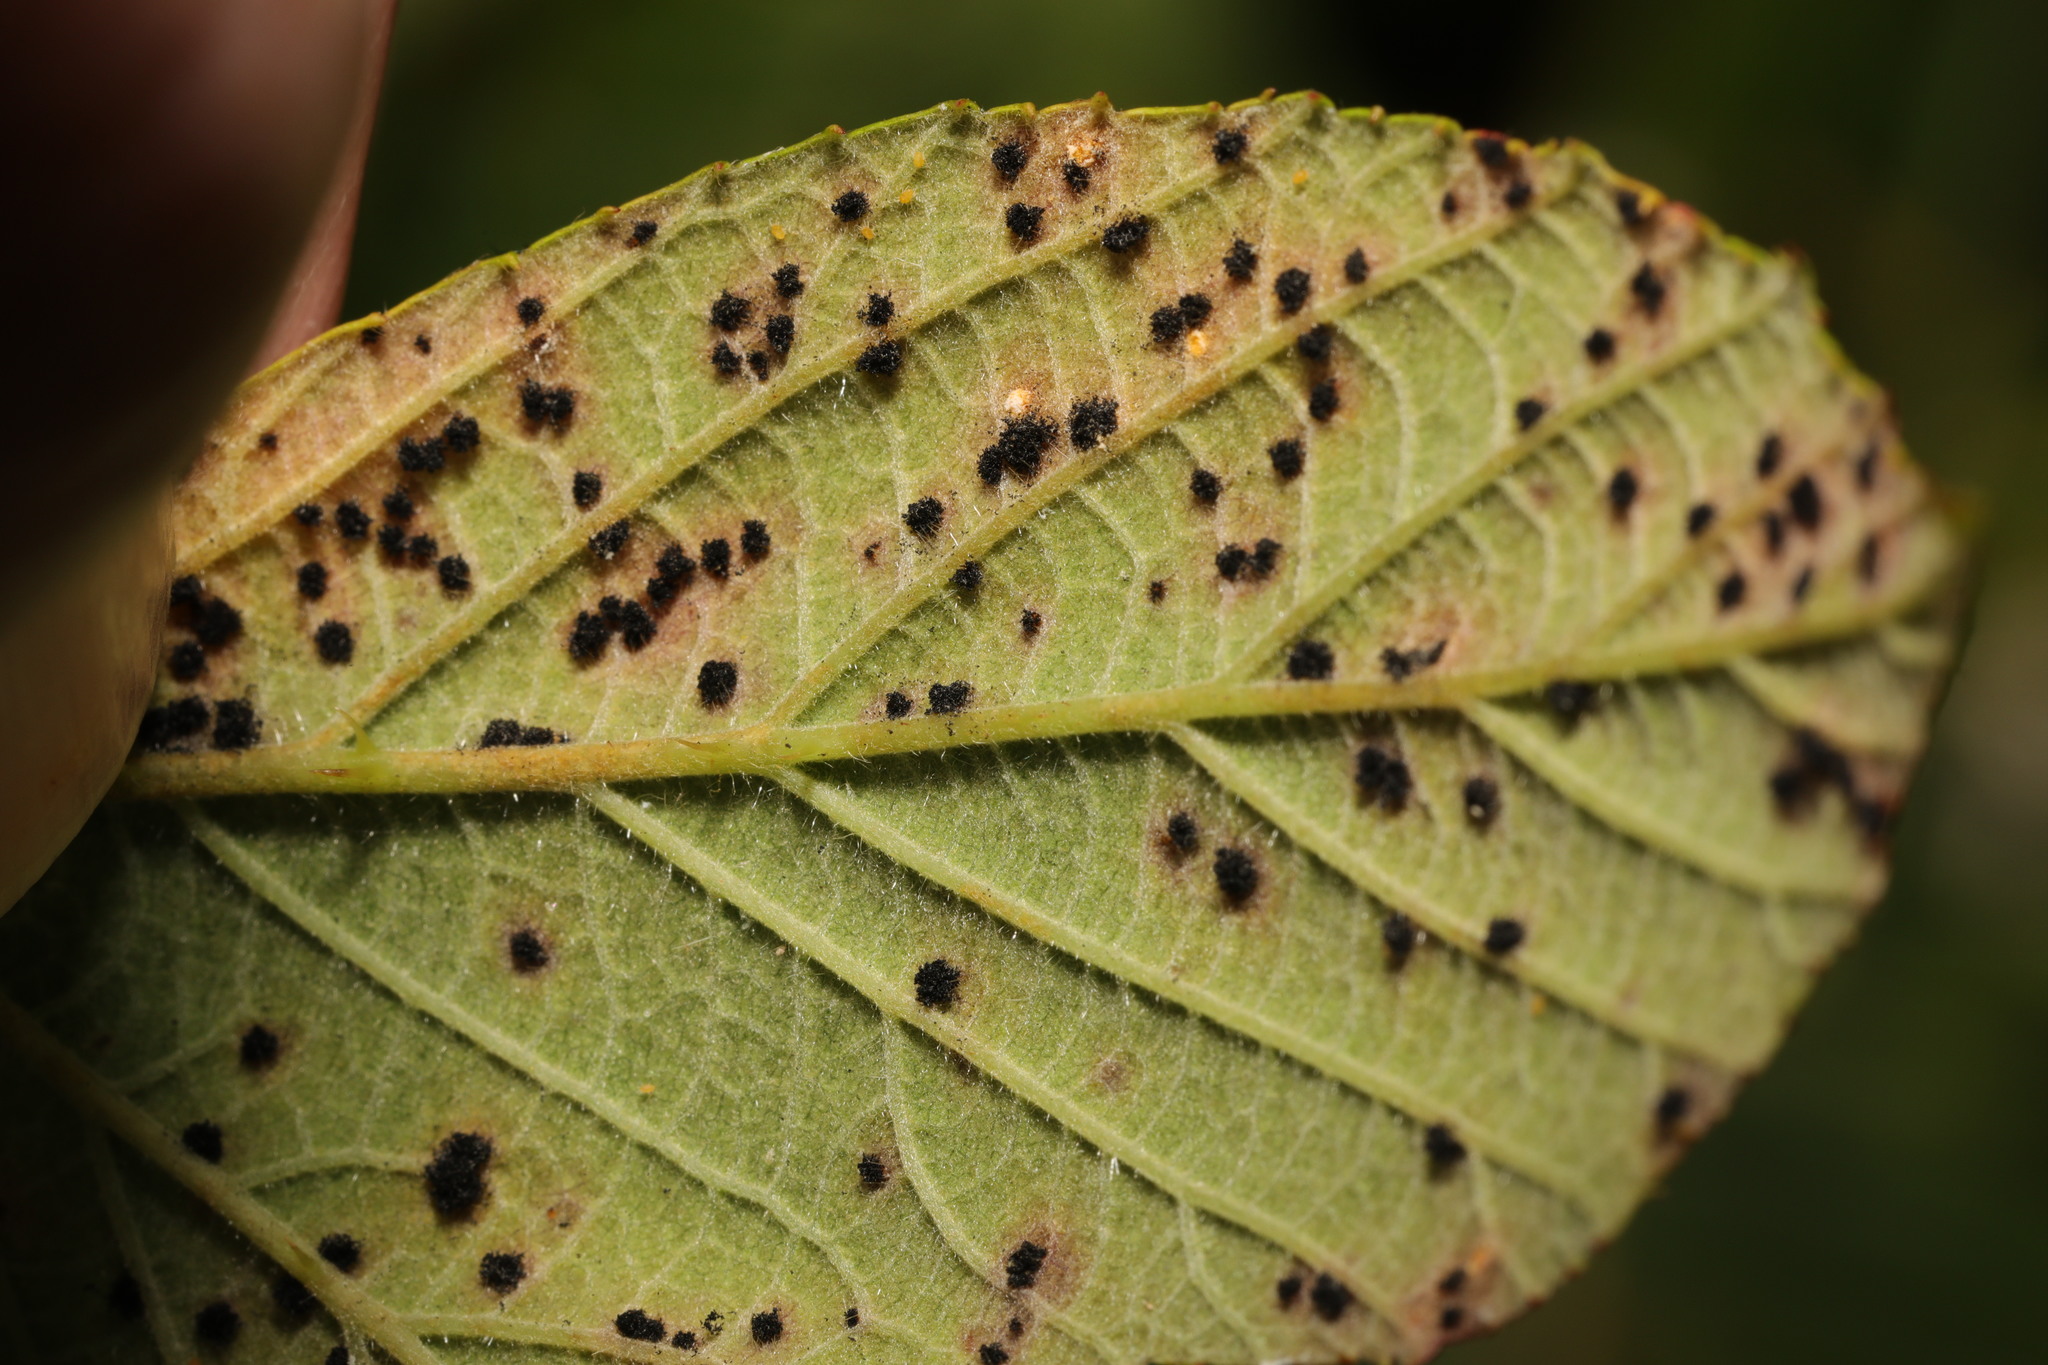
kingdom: Fungi
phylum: Basidiomycota
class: Pucciniomycetes
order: Pucciniales
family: Phragmidiaceae
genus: Phragmidium
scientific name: Phragmidium violaceum
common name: Violet bramble rust
